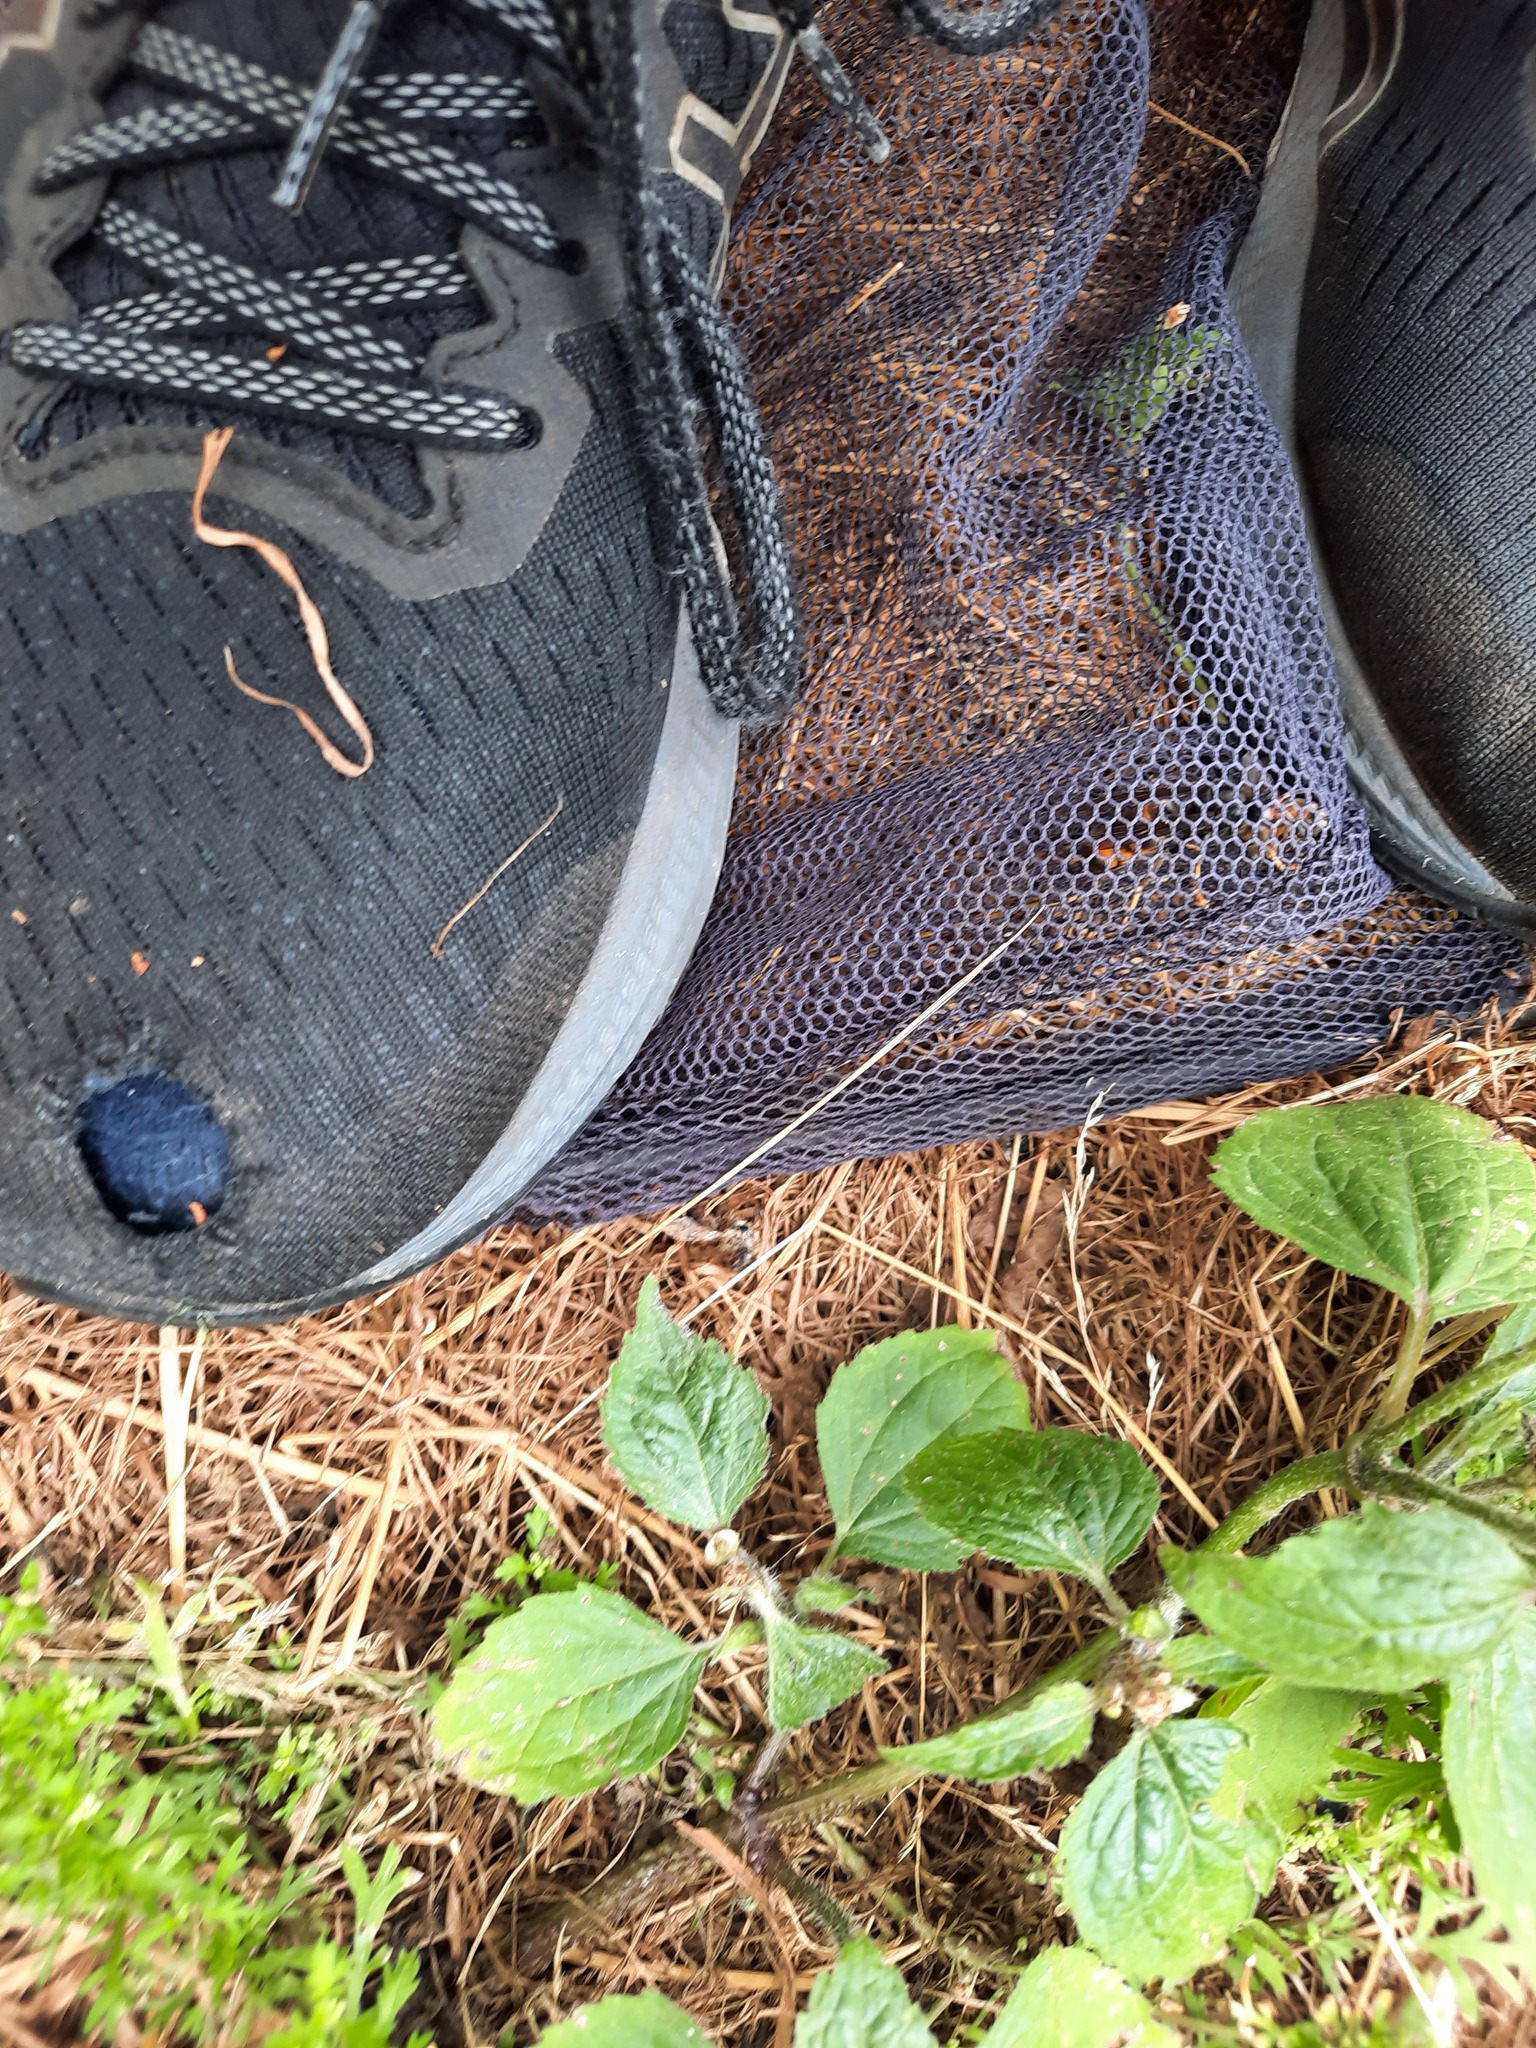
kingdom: Animalia
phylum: Arthropoda
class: Insecta
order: Hymenoptera
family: Vespidae
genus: Vespa
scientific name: Vespa velutina
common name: Asian hornet
